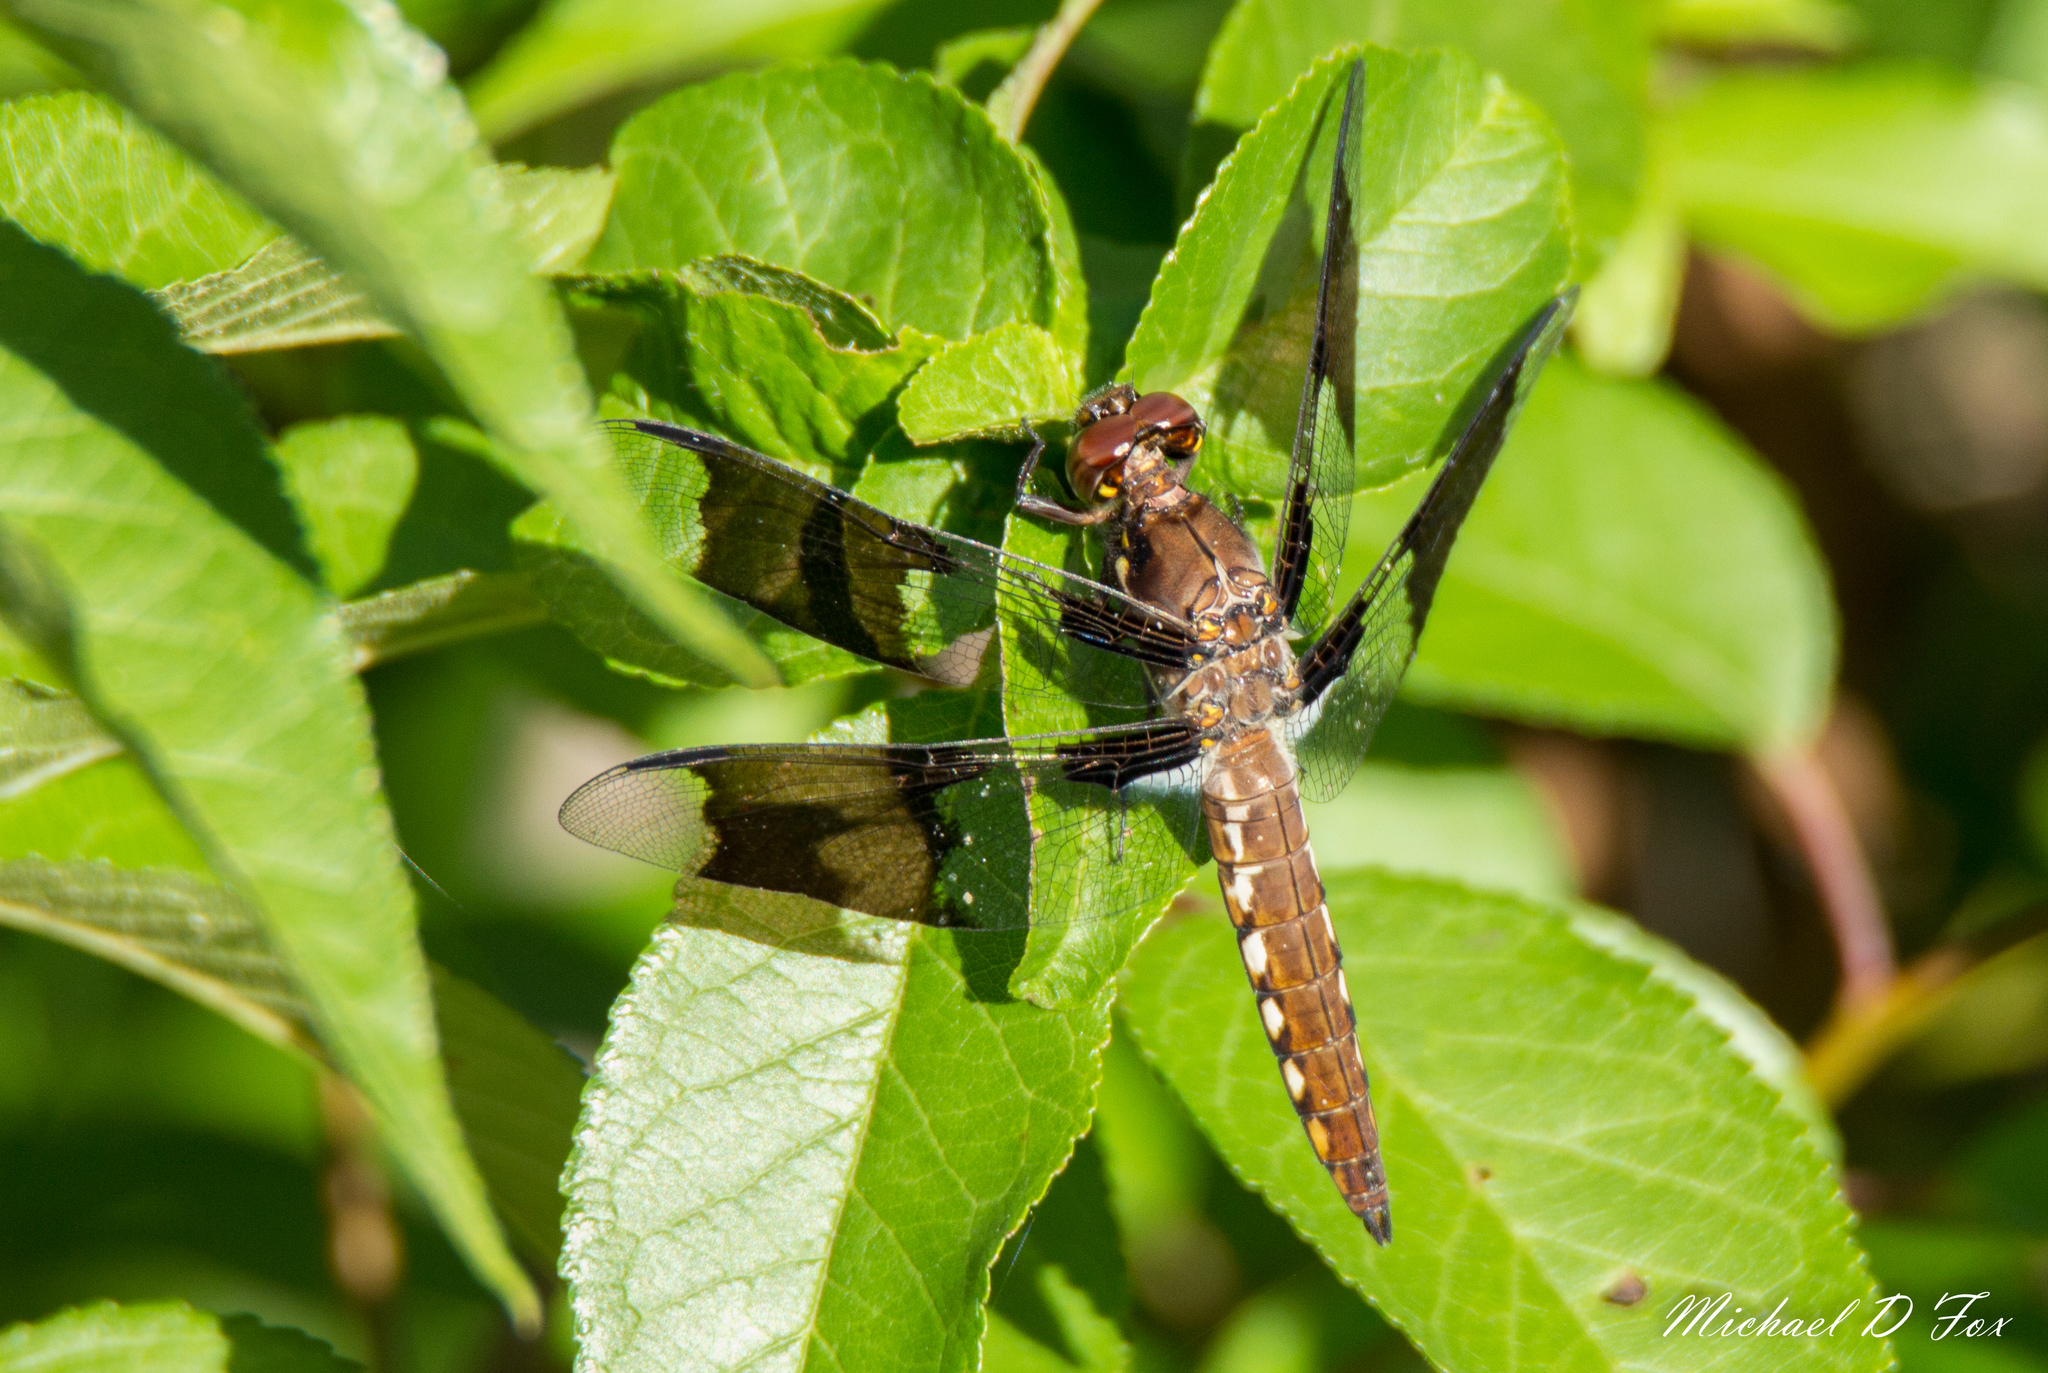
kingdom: Animalia
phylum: Arthropoda
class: Insecta
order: Odonata
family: Libellulidae
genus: Plathemis
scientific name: Plathemis lydia
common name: Common whitetail
